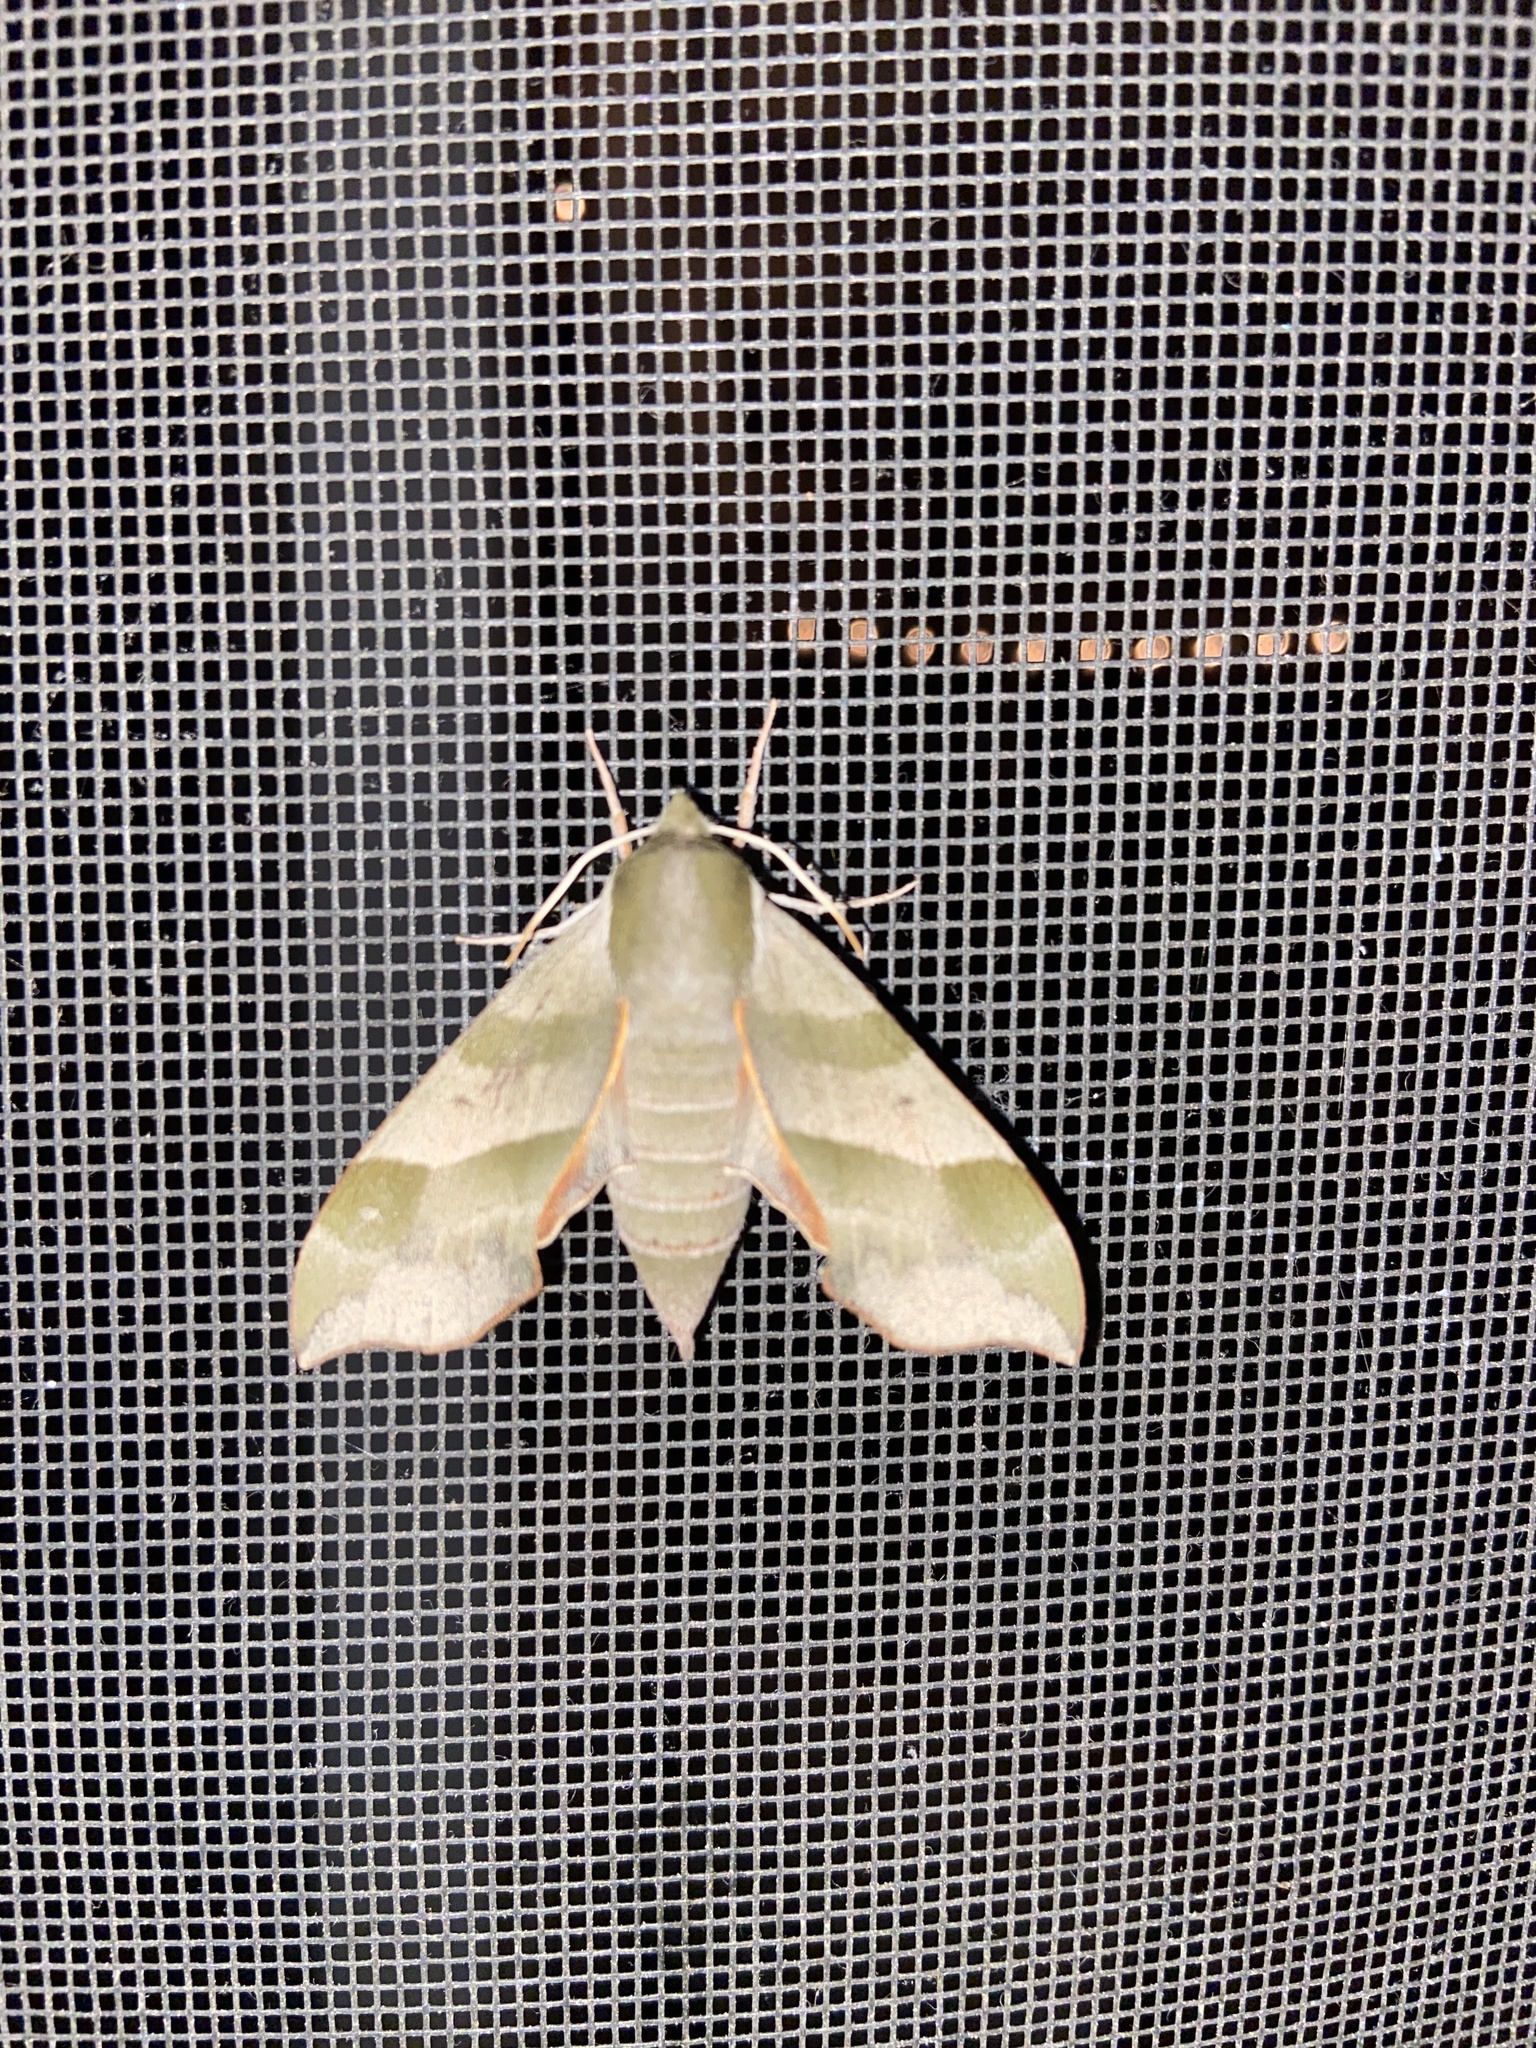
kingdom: Animalia
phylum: Arthropoda
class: Insecta
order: Lepidoptera
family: Sphingidae
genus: Darapsa
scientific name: Darapsa myron
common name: Hog sphinx
